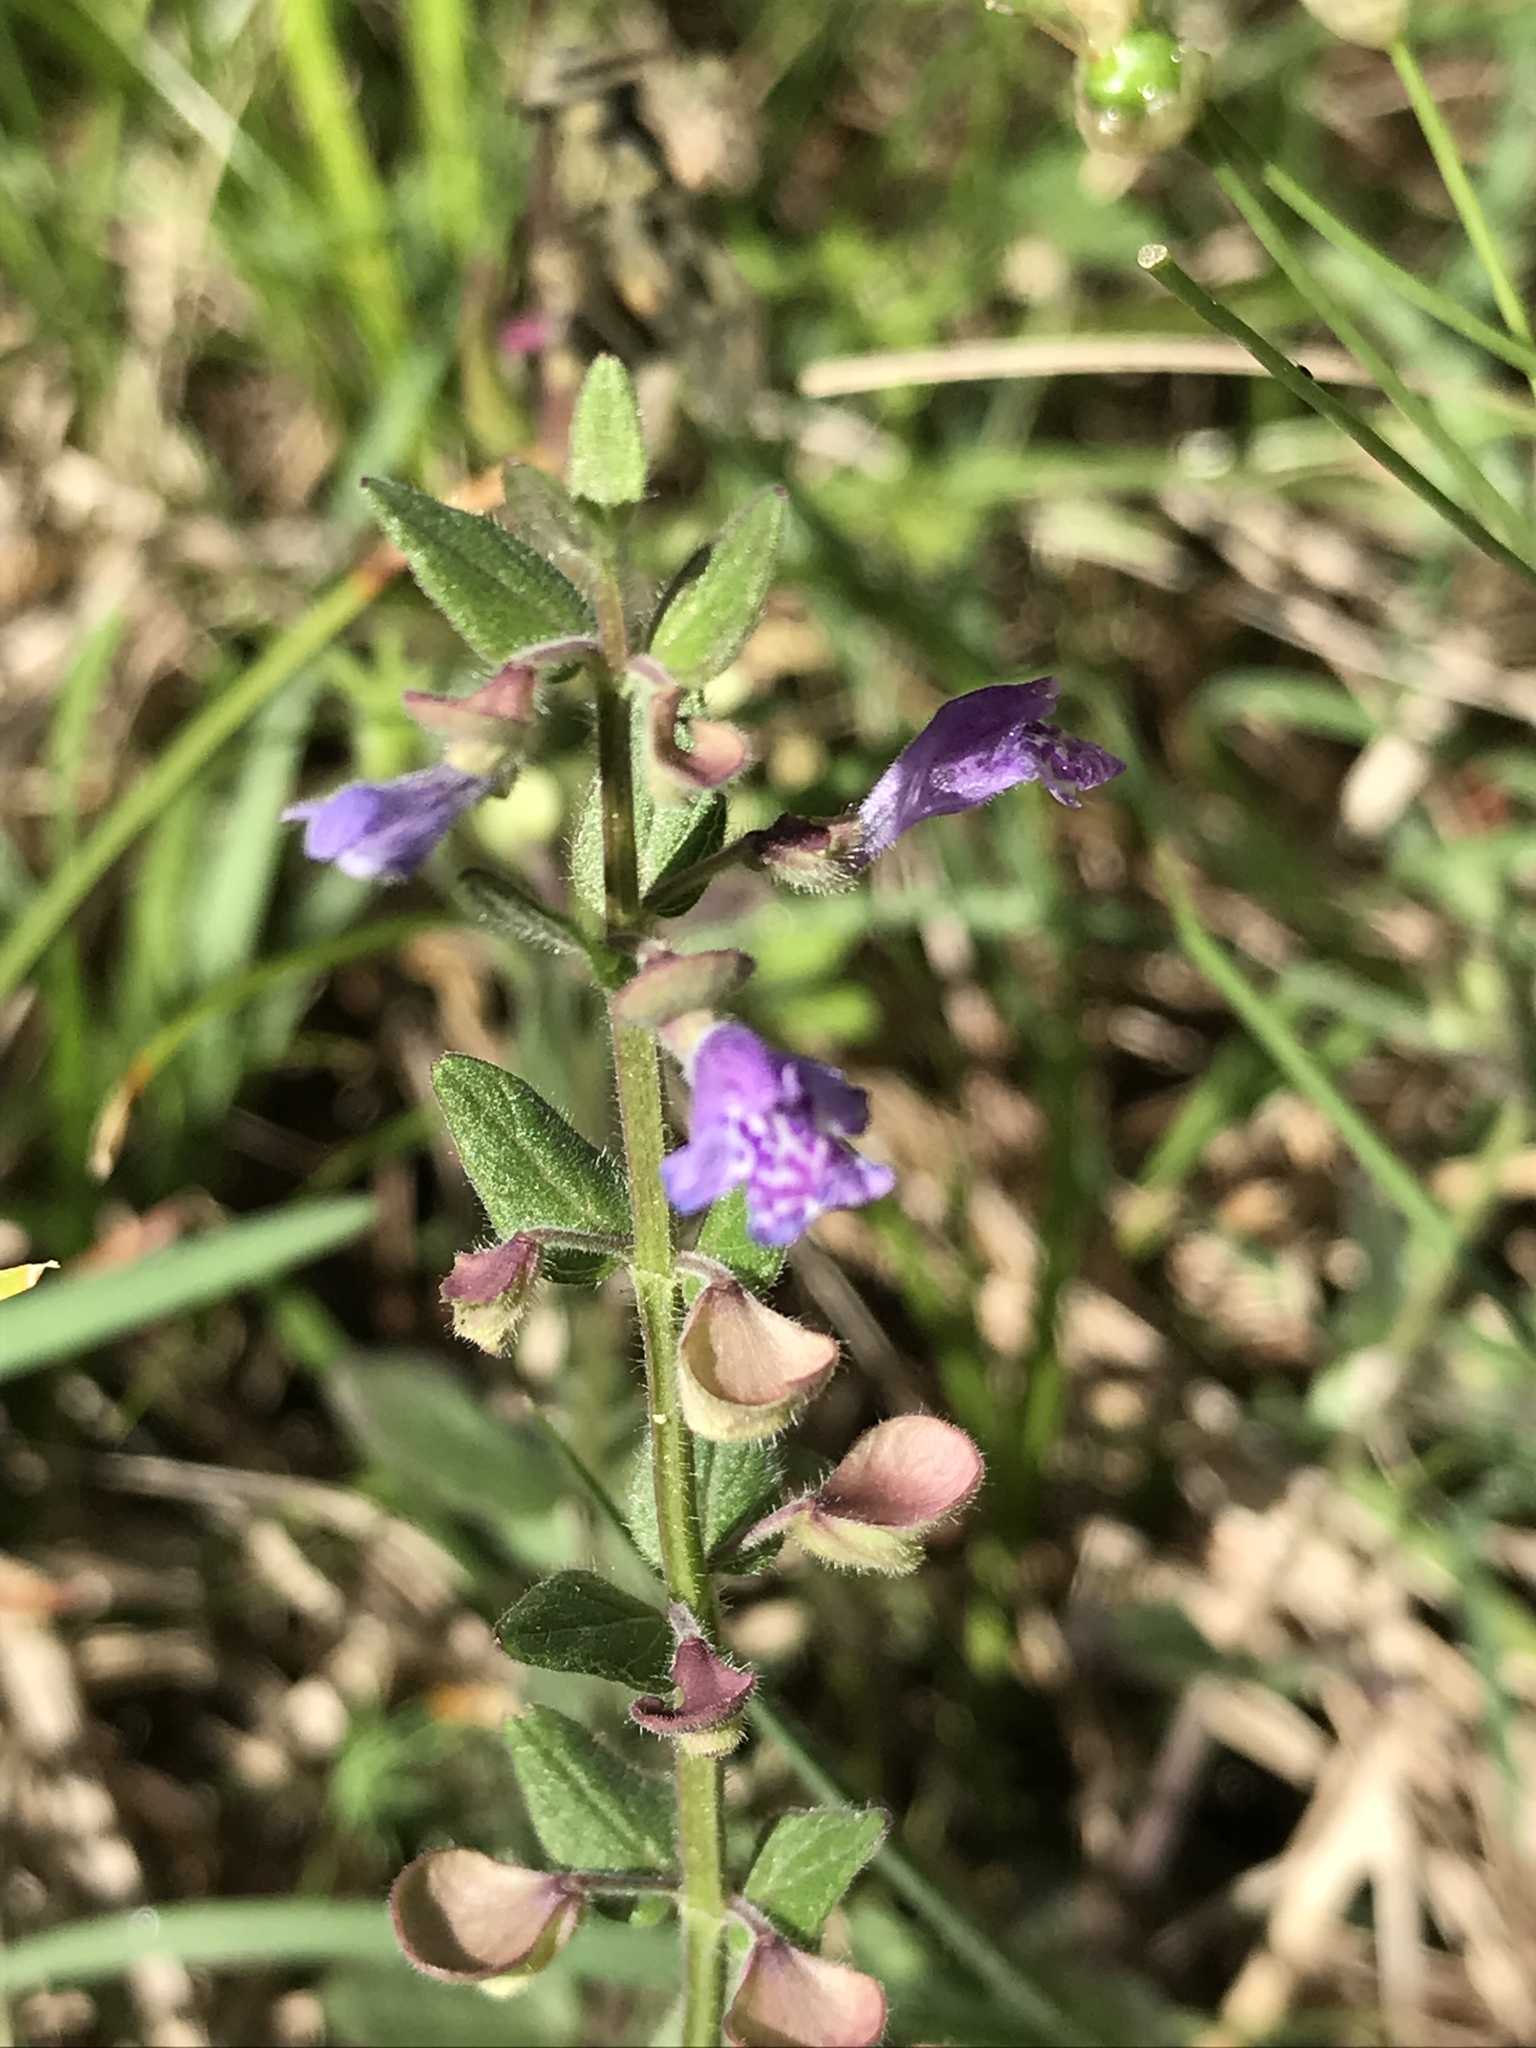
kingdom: Plantae
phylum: Tracheophyta
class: Magnoliopsida
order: Lamiales
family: Lamiaceae
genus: Scutellaria
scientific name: Scutellaria parvula
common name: Little scullcap
